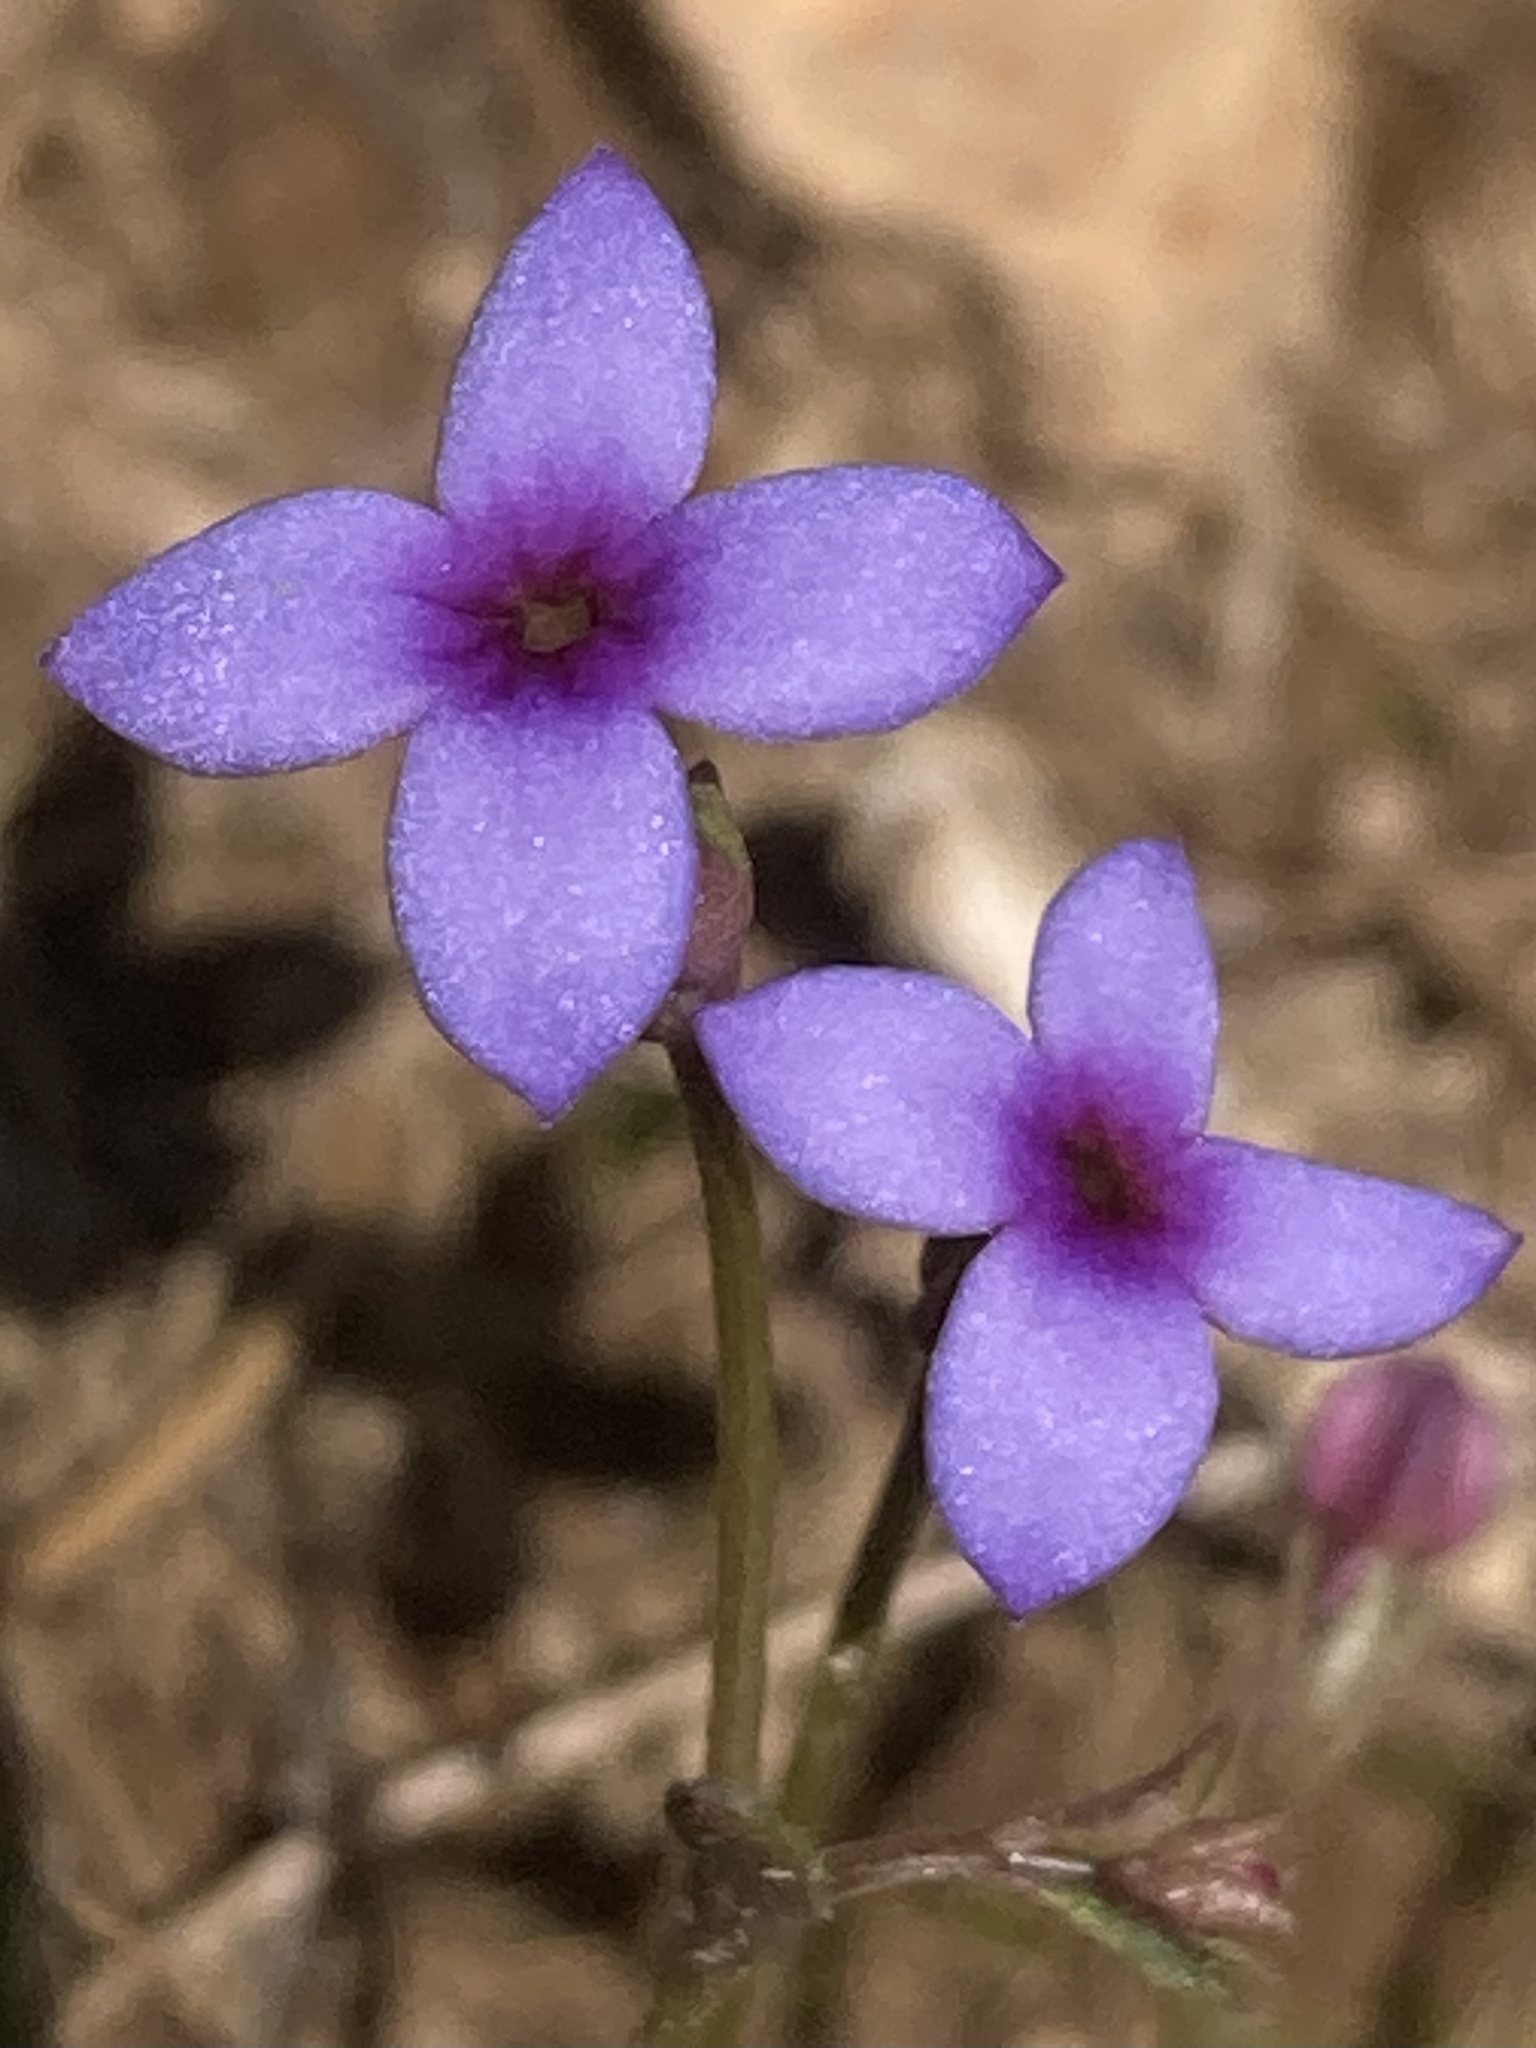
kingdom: Plantae
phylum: Tracheophyta
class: Magnoliopsida
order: Gentianales
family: Rubiaceae
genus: Houstonia
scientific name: Houstonia pusilla
